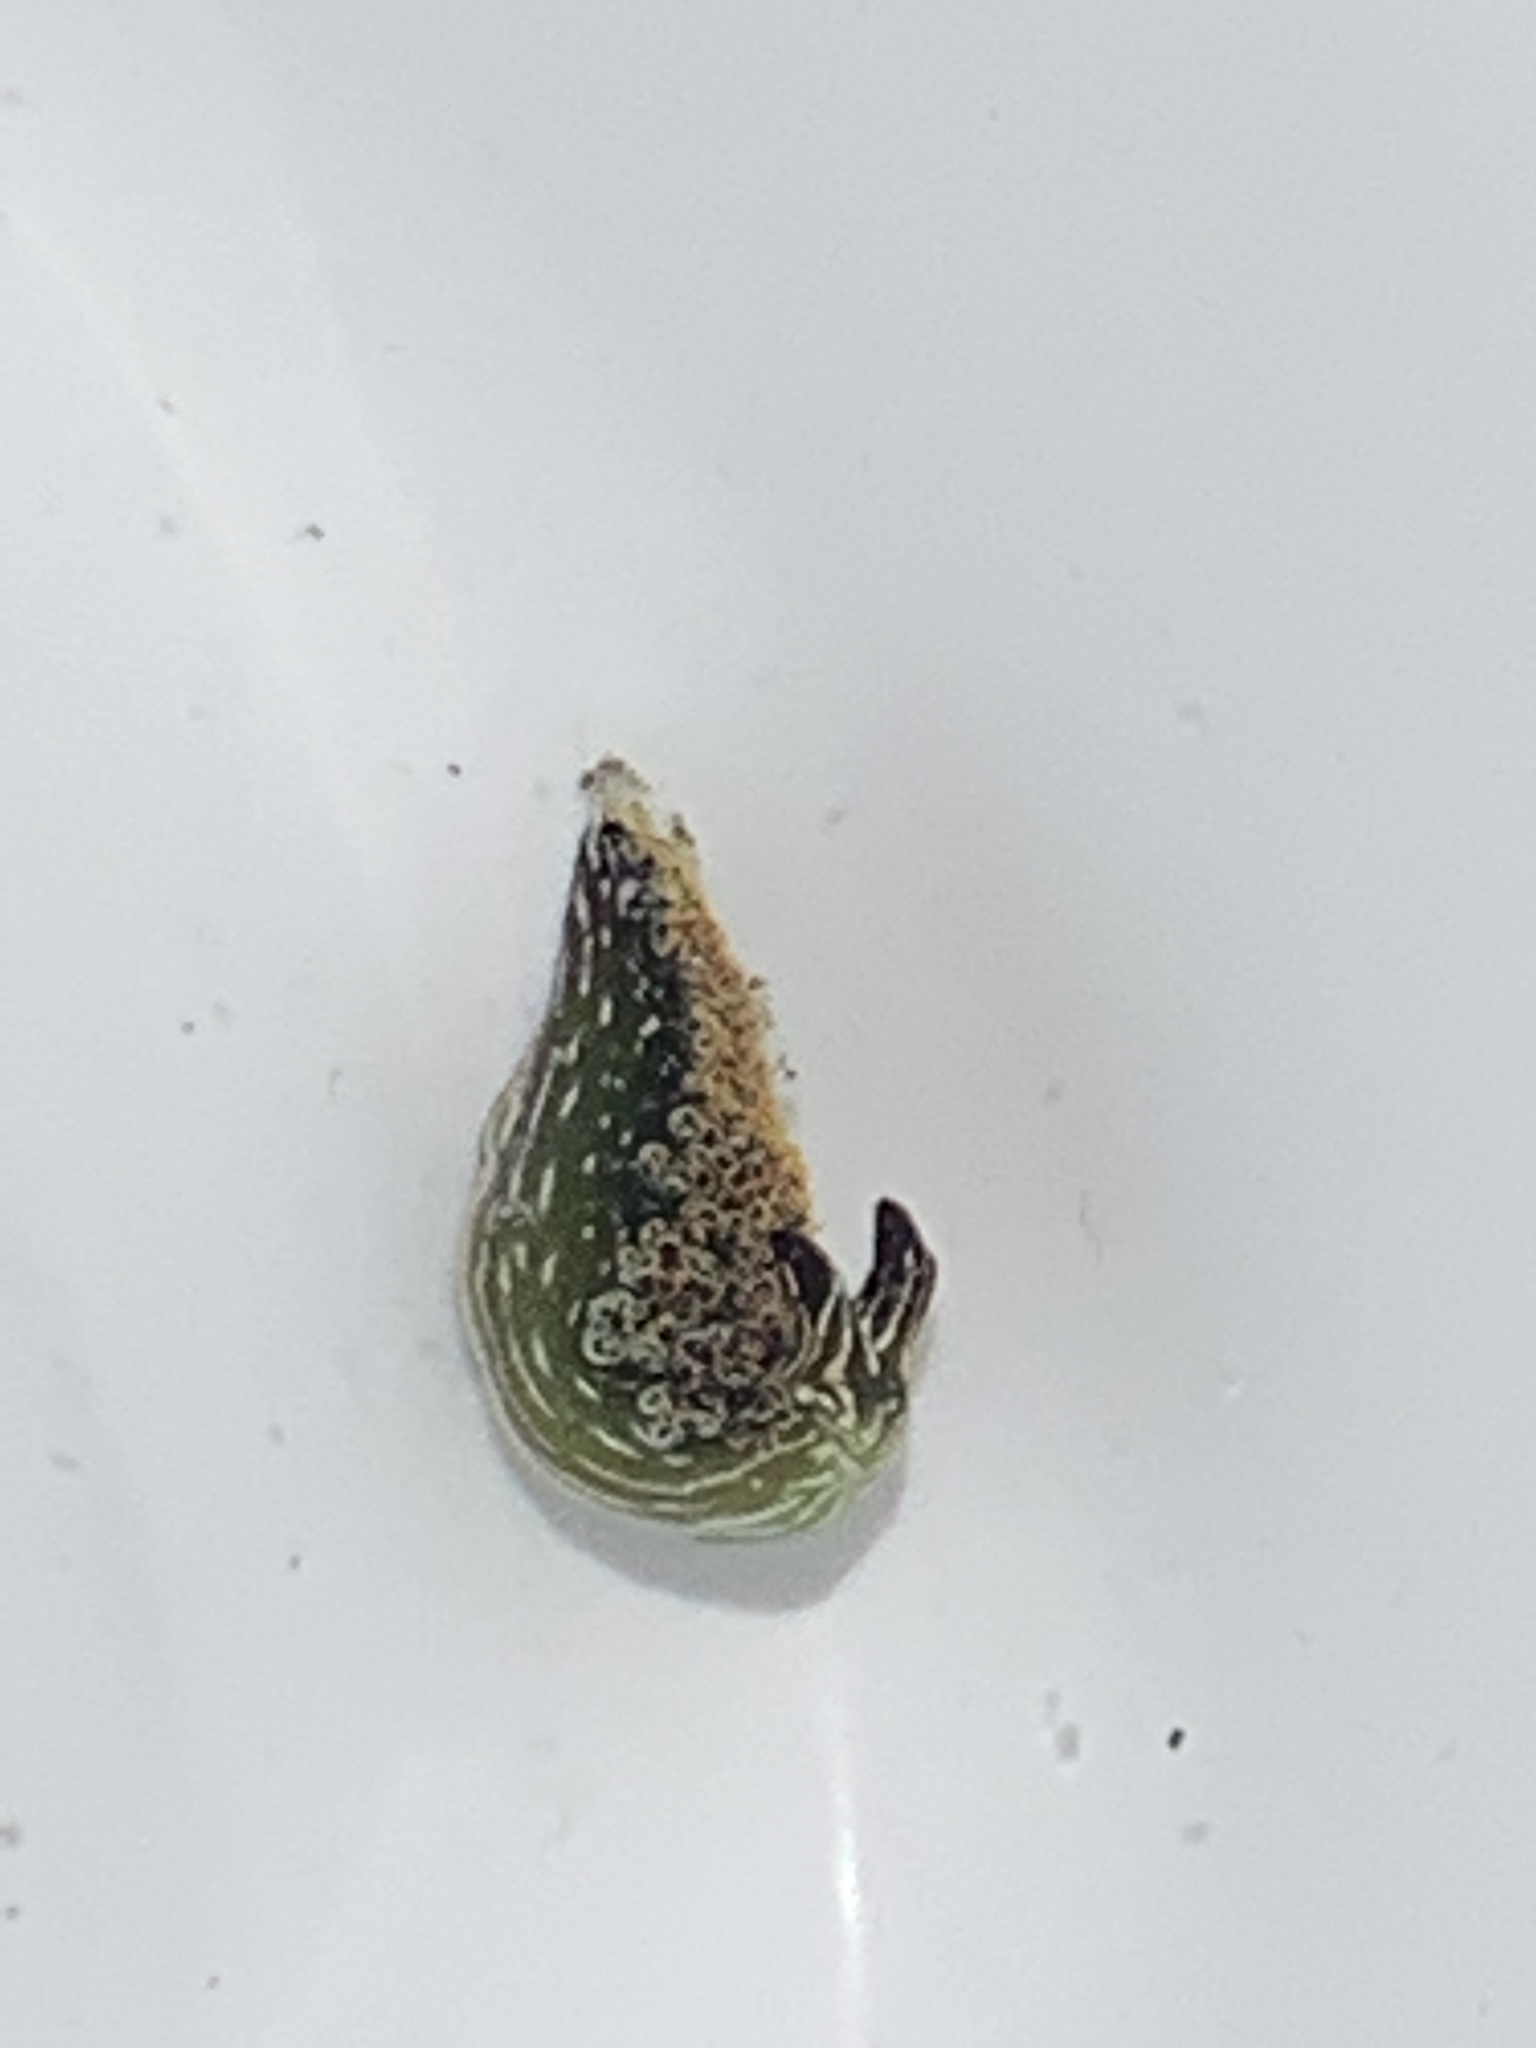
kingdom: Animalia
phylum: Mollusca
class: Gastropoda
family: Plakobranchidae
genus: Elysia
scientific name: Elysia diomedea
